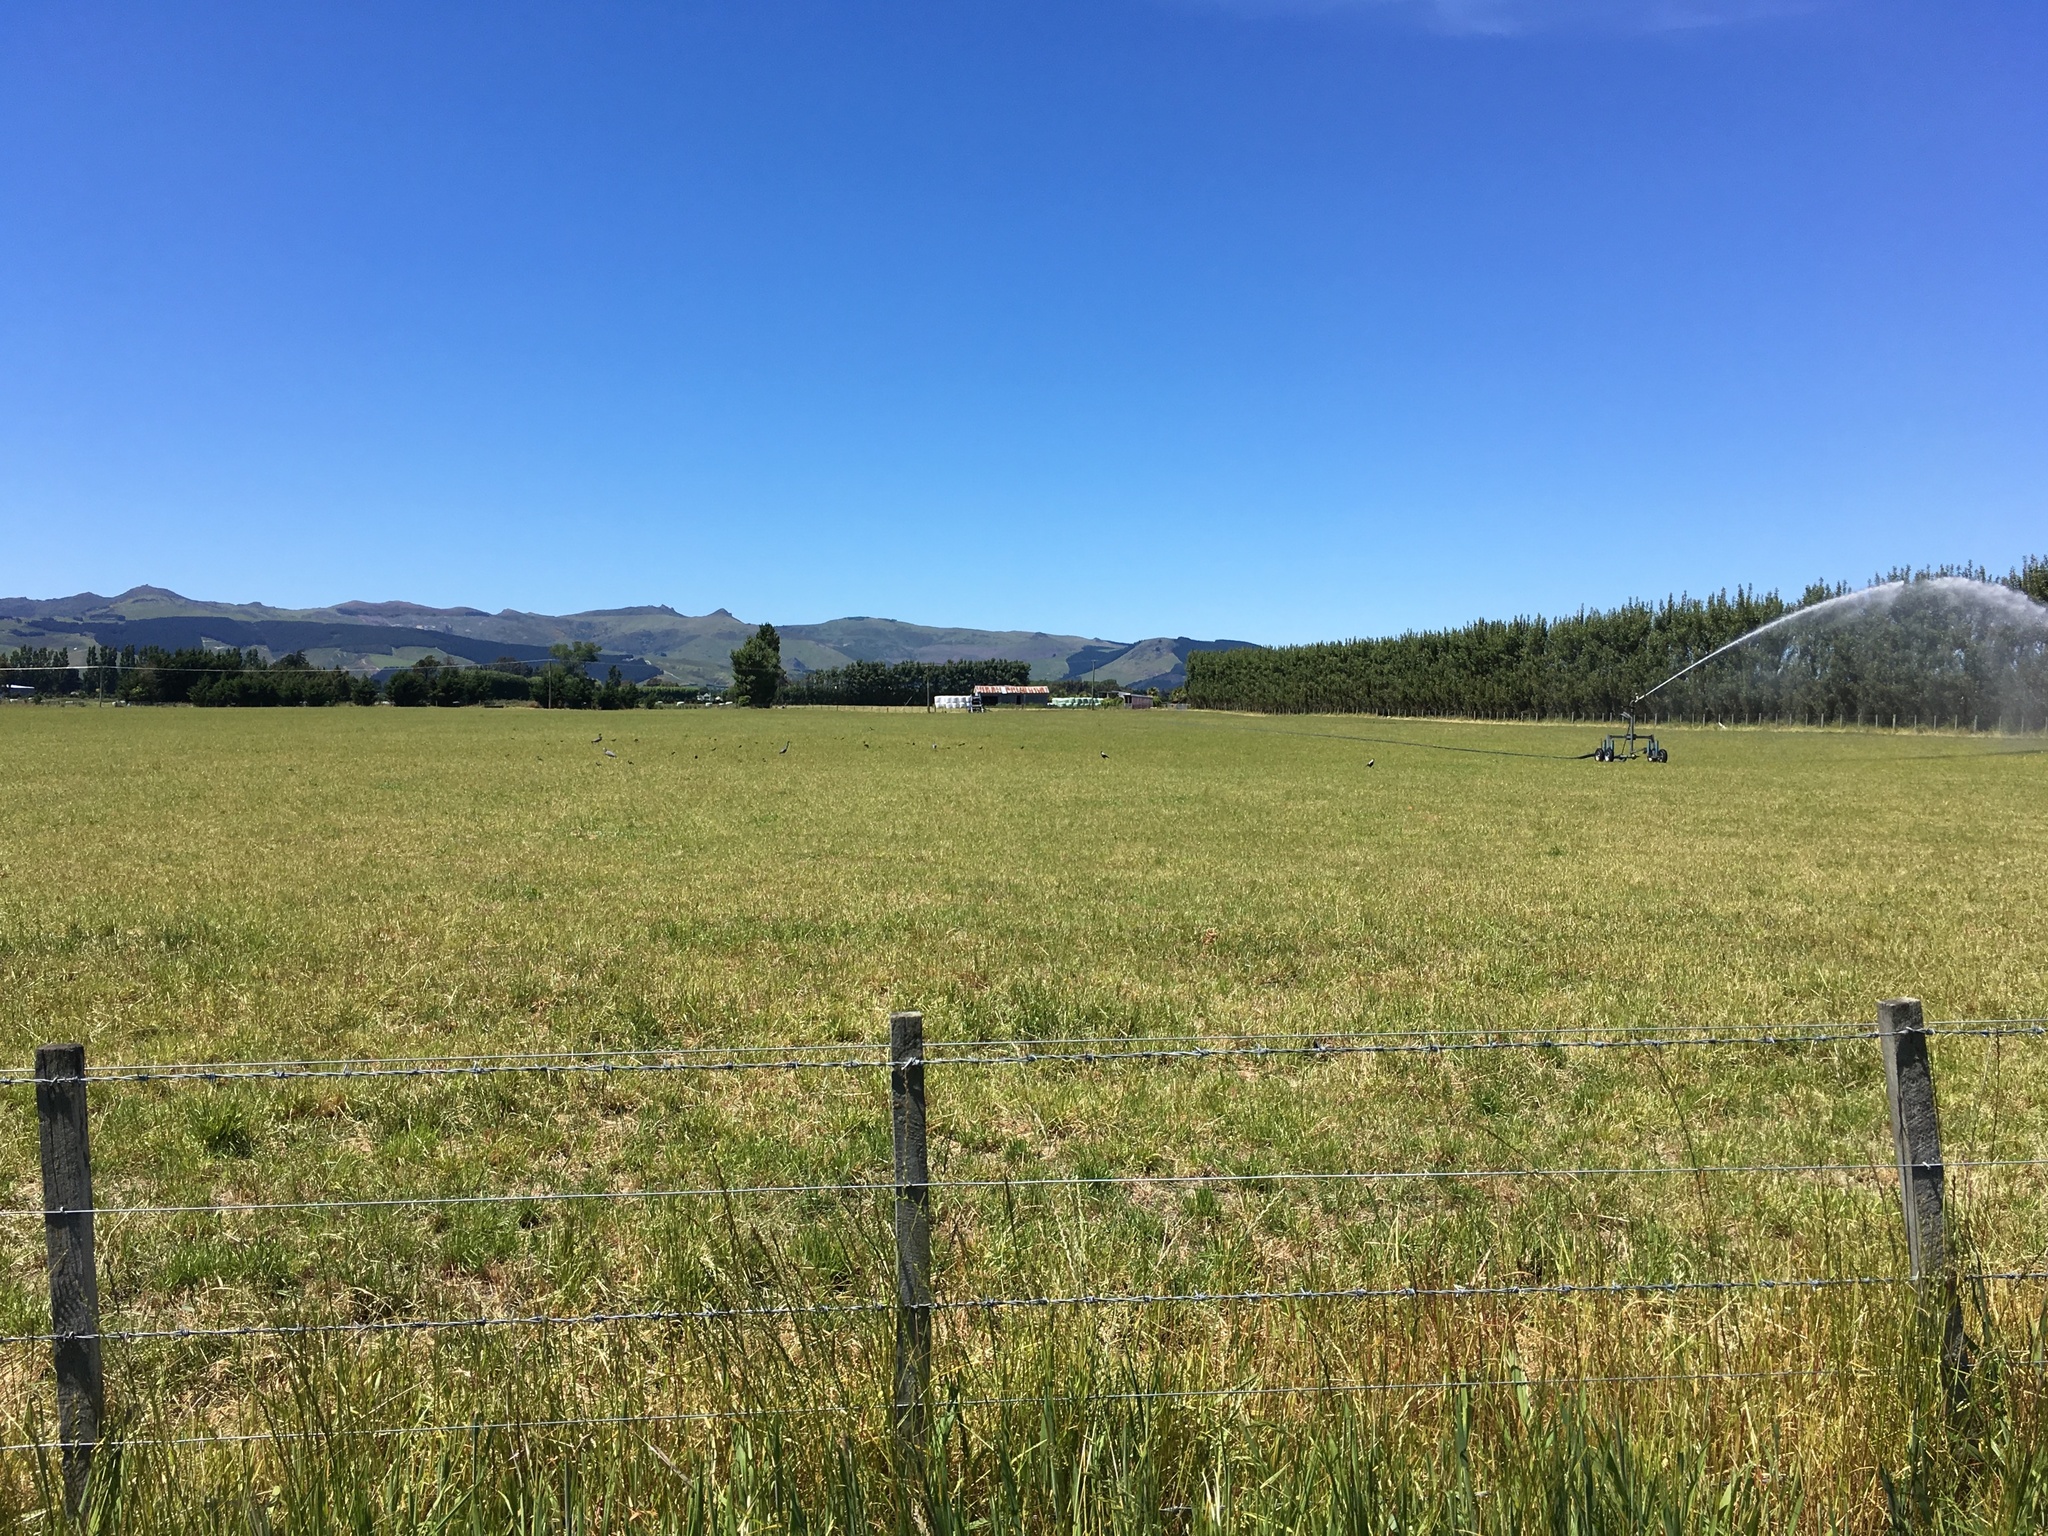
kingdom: Animalia
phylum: Chordata
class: Aves
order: Pelecaniformes
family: Ardeidae
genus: Egretta
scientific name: Egretta novaehollandiae
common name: White-faced heron
